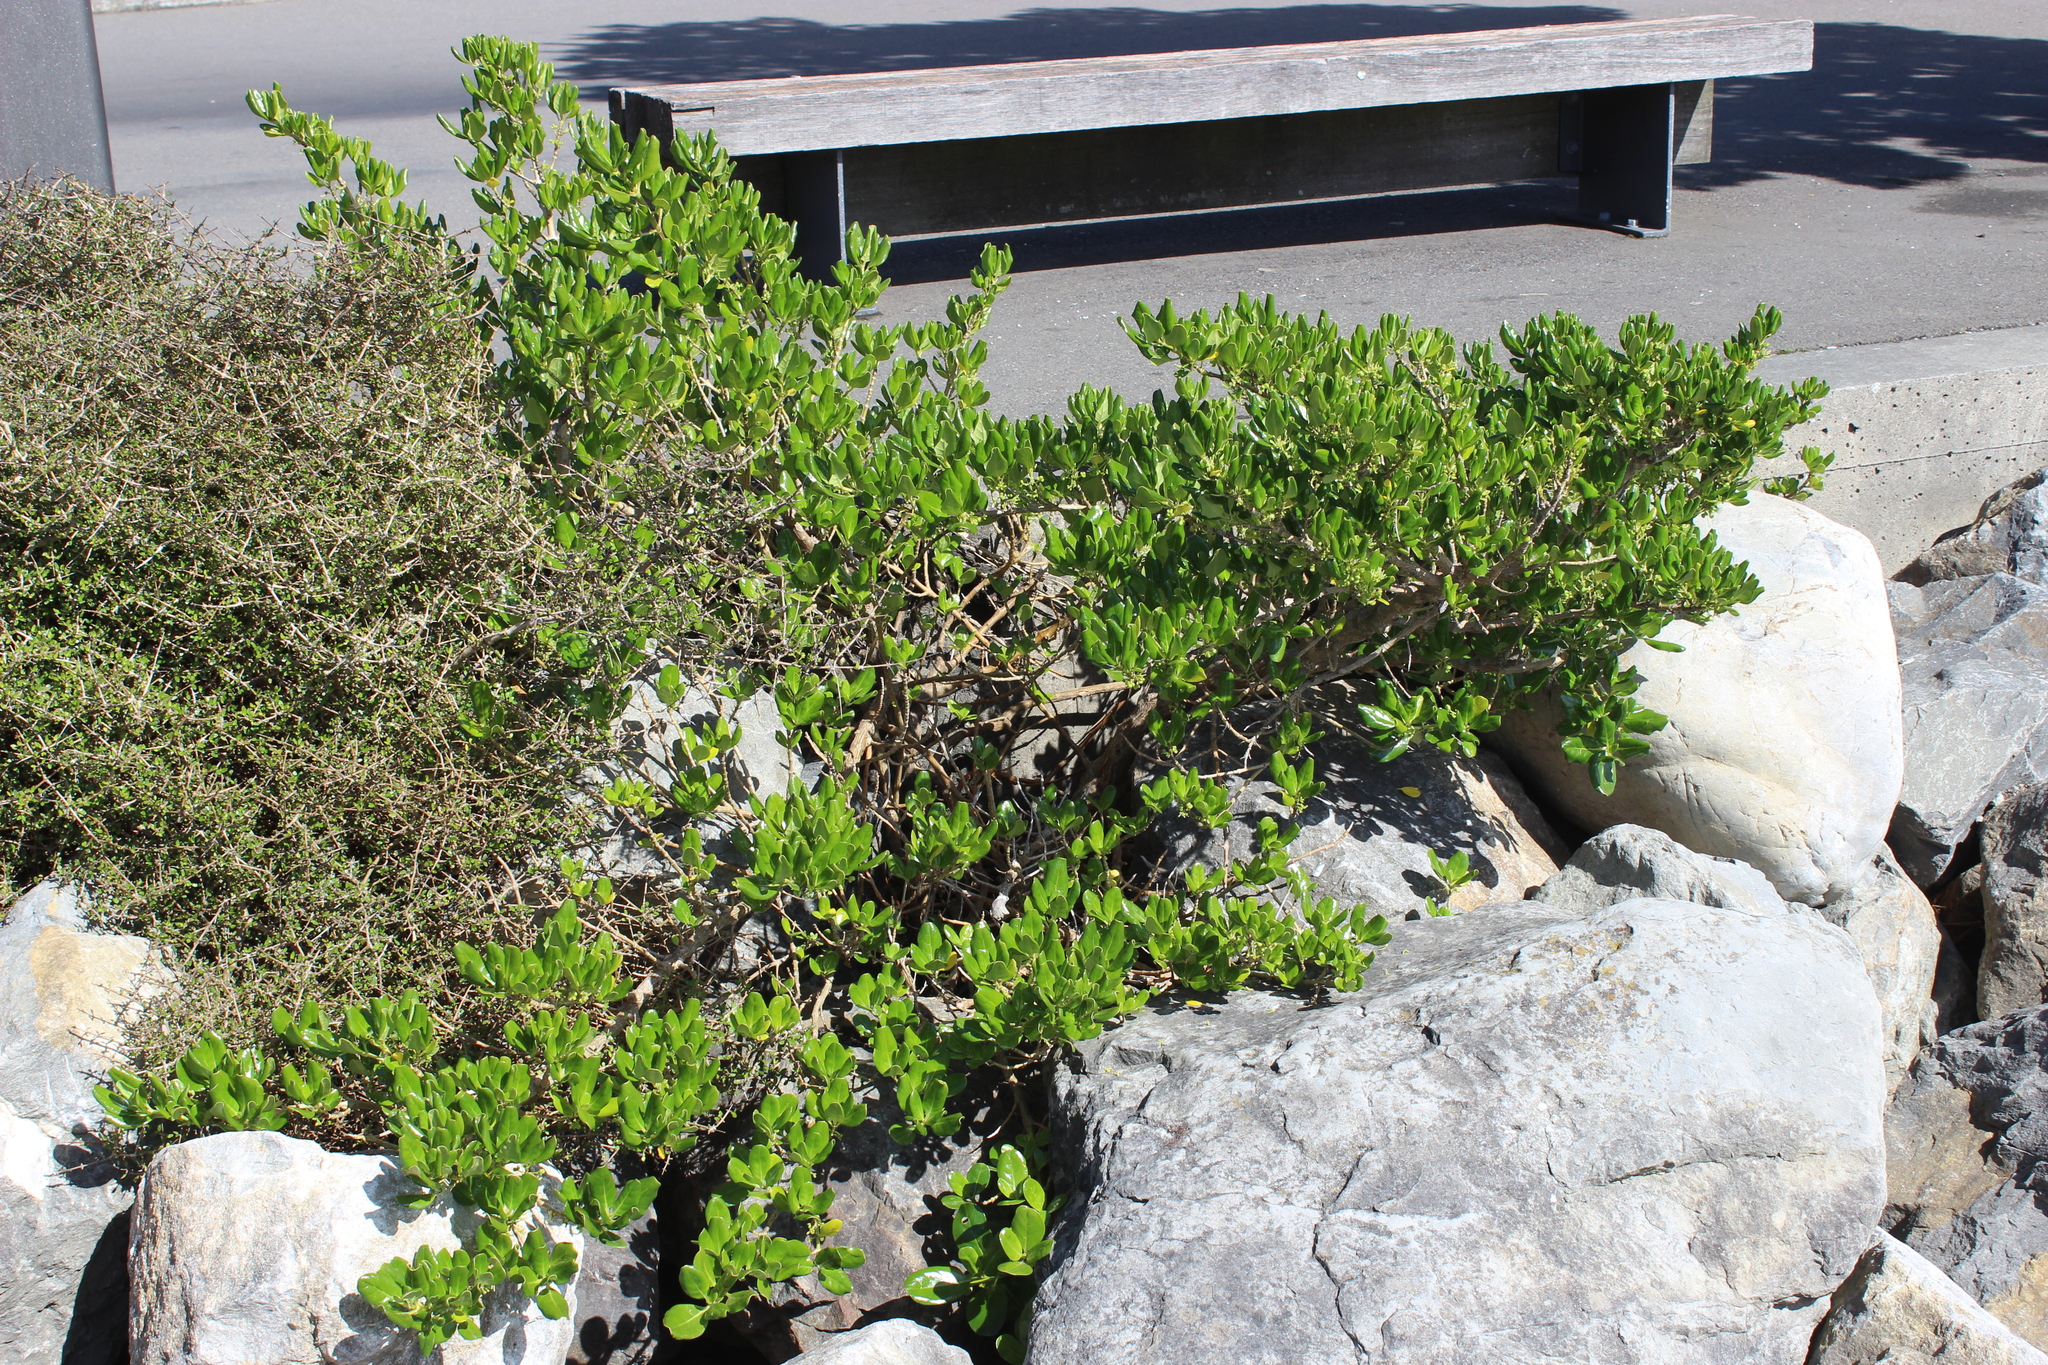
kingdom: Plantae
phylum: Tracheophyta
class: Magnoliopsida
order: Gentianales
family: Rubiaceae
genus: Coprosma
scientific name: Coprosma repens
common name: Tree bedstraw
